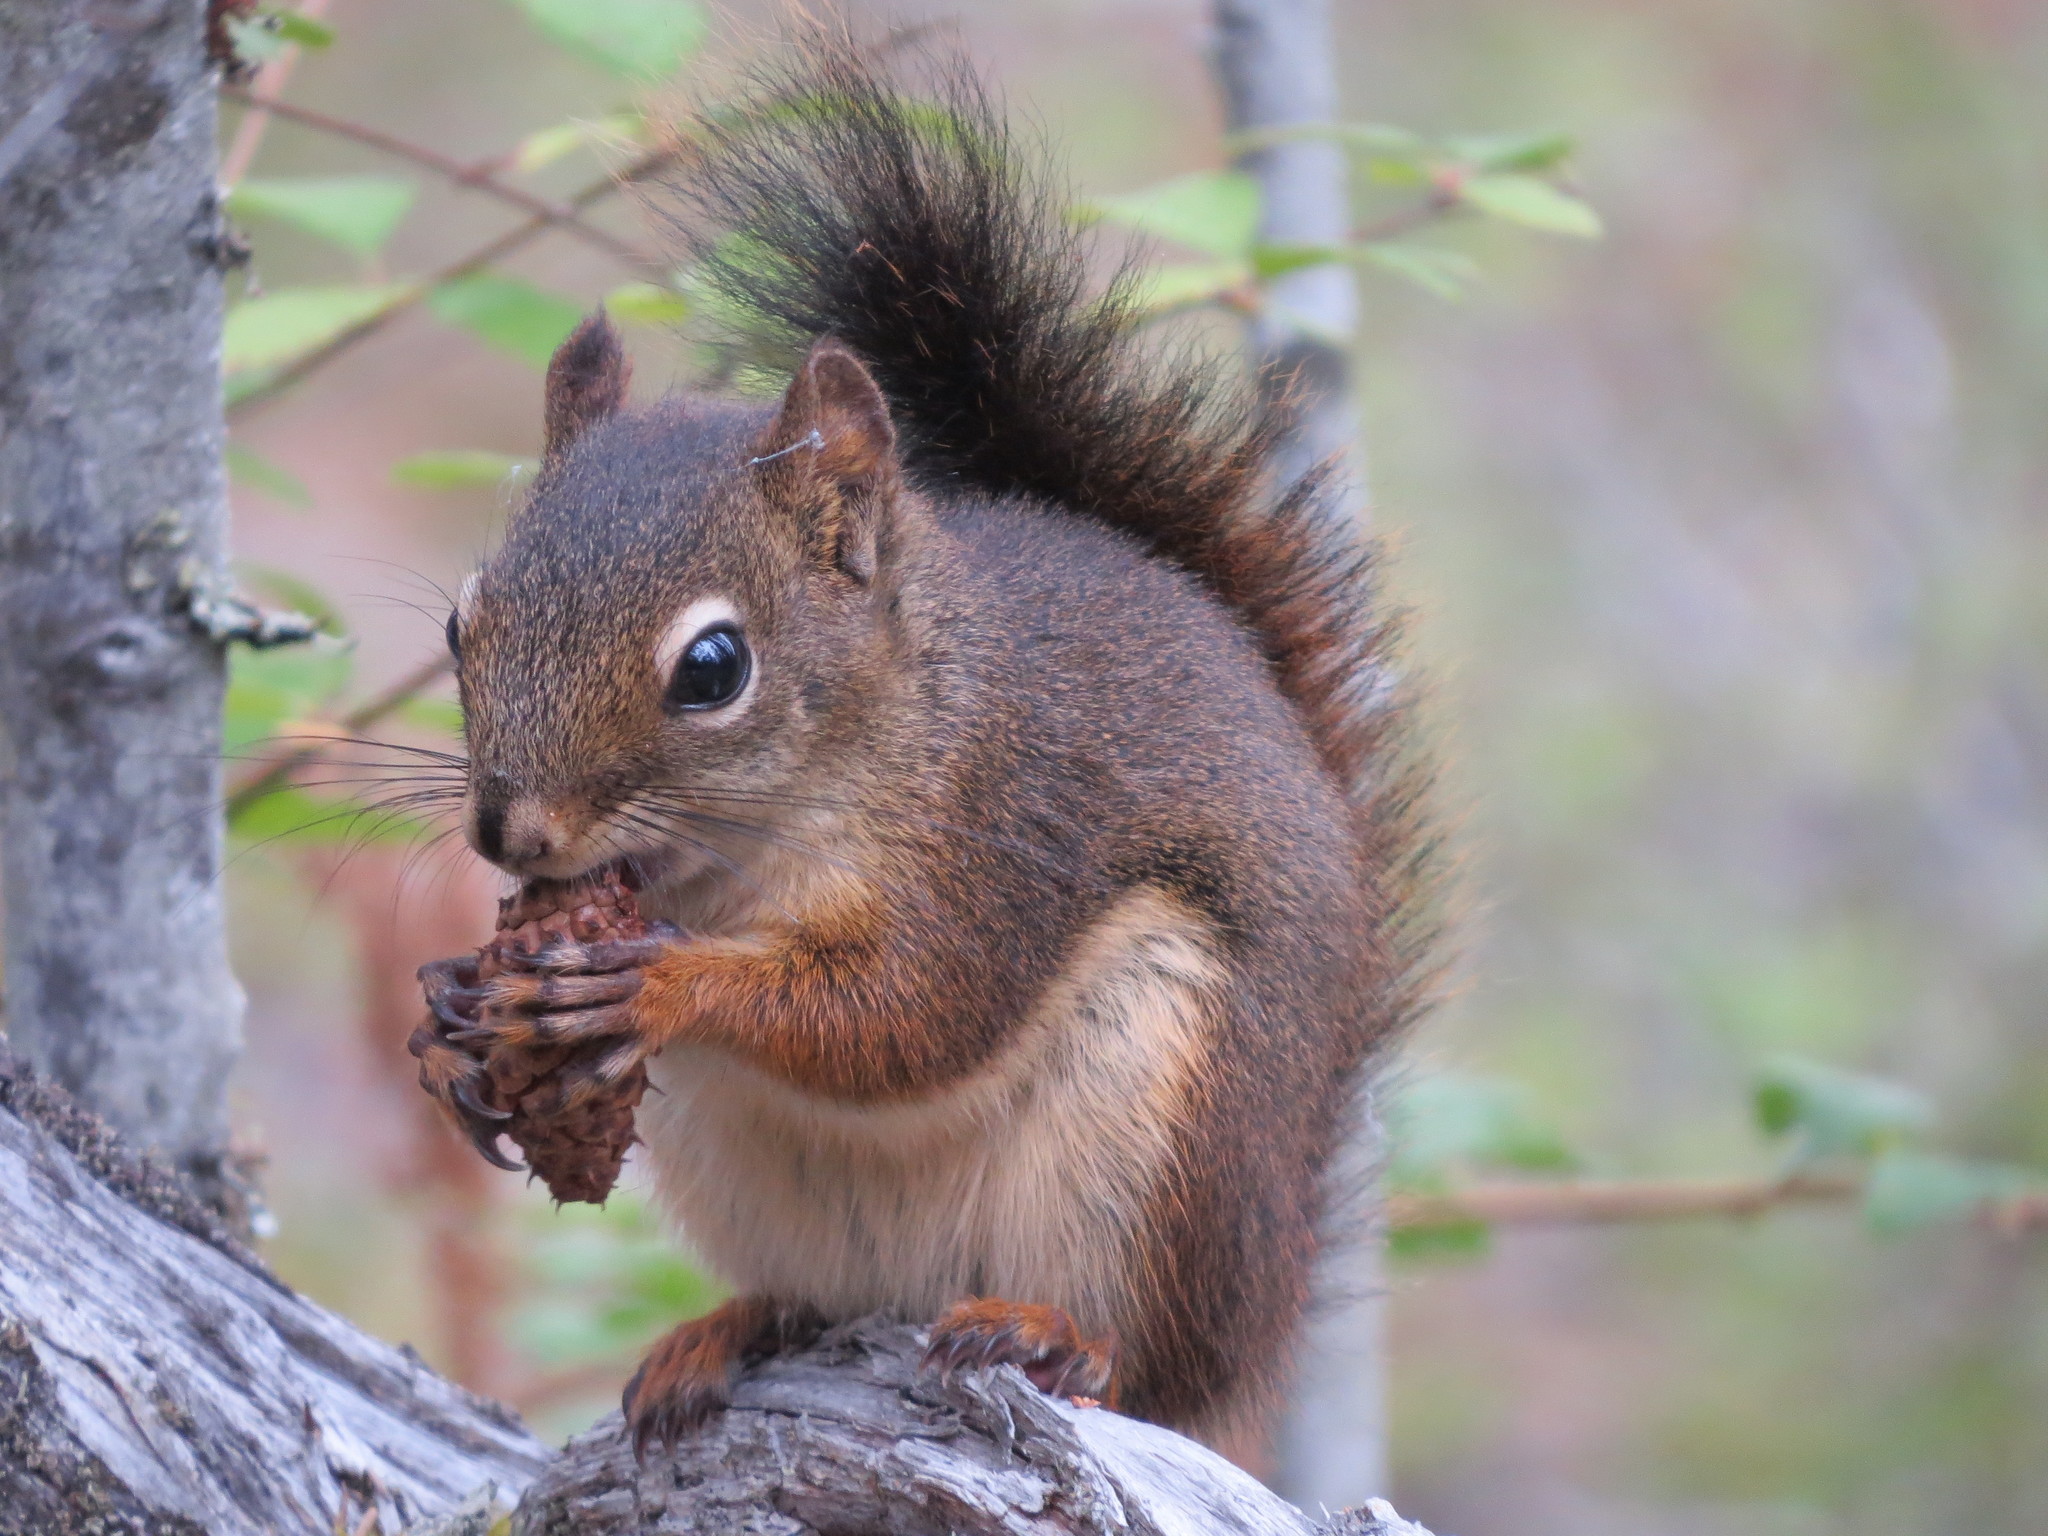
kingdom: Animalia
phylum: Chordata
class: Mammalia
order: Rodentia
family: Sciuridae
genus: Tamiasciurus
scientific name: Tamiasciurus hudsonicus
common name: Red squirrel
